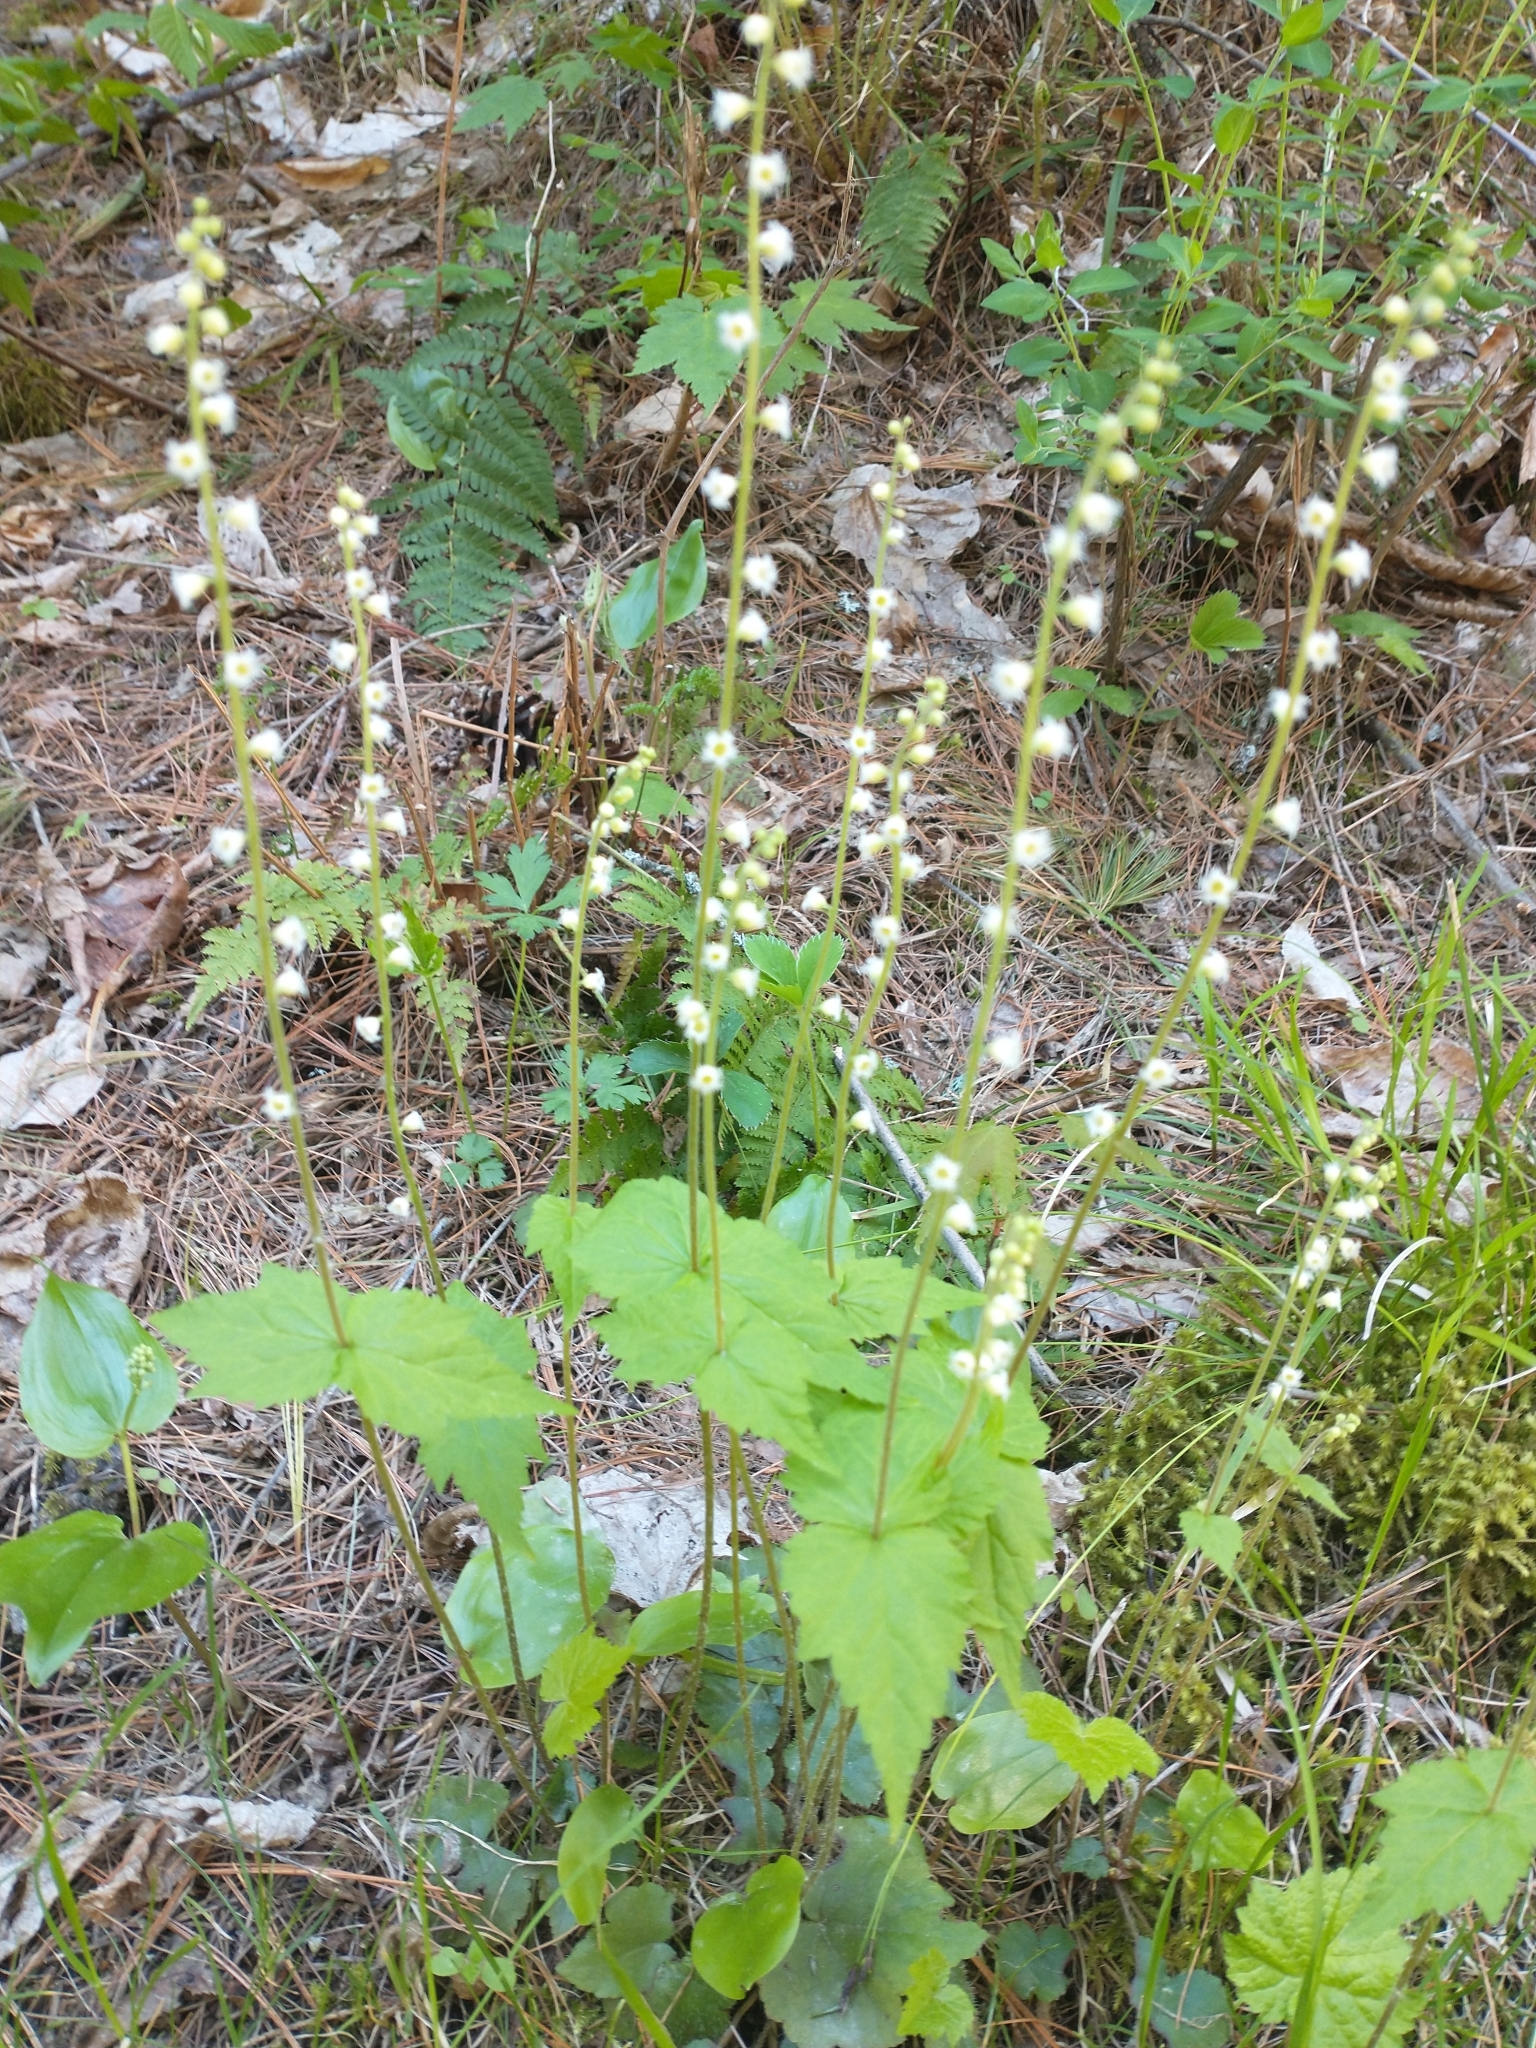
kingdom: Plantae
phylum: Tracheophyta
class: Magnoliopsida
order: Saxifragales
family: Saxifragaceae
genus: Mitella
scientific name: Mitella diphylla
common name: Coolwort
